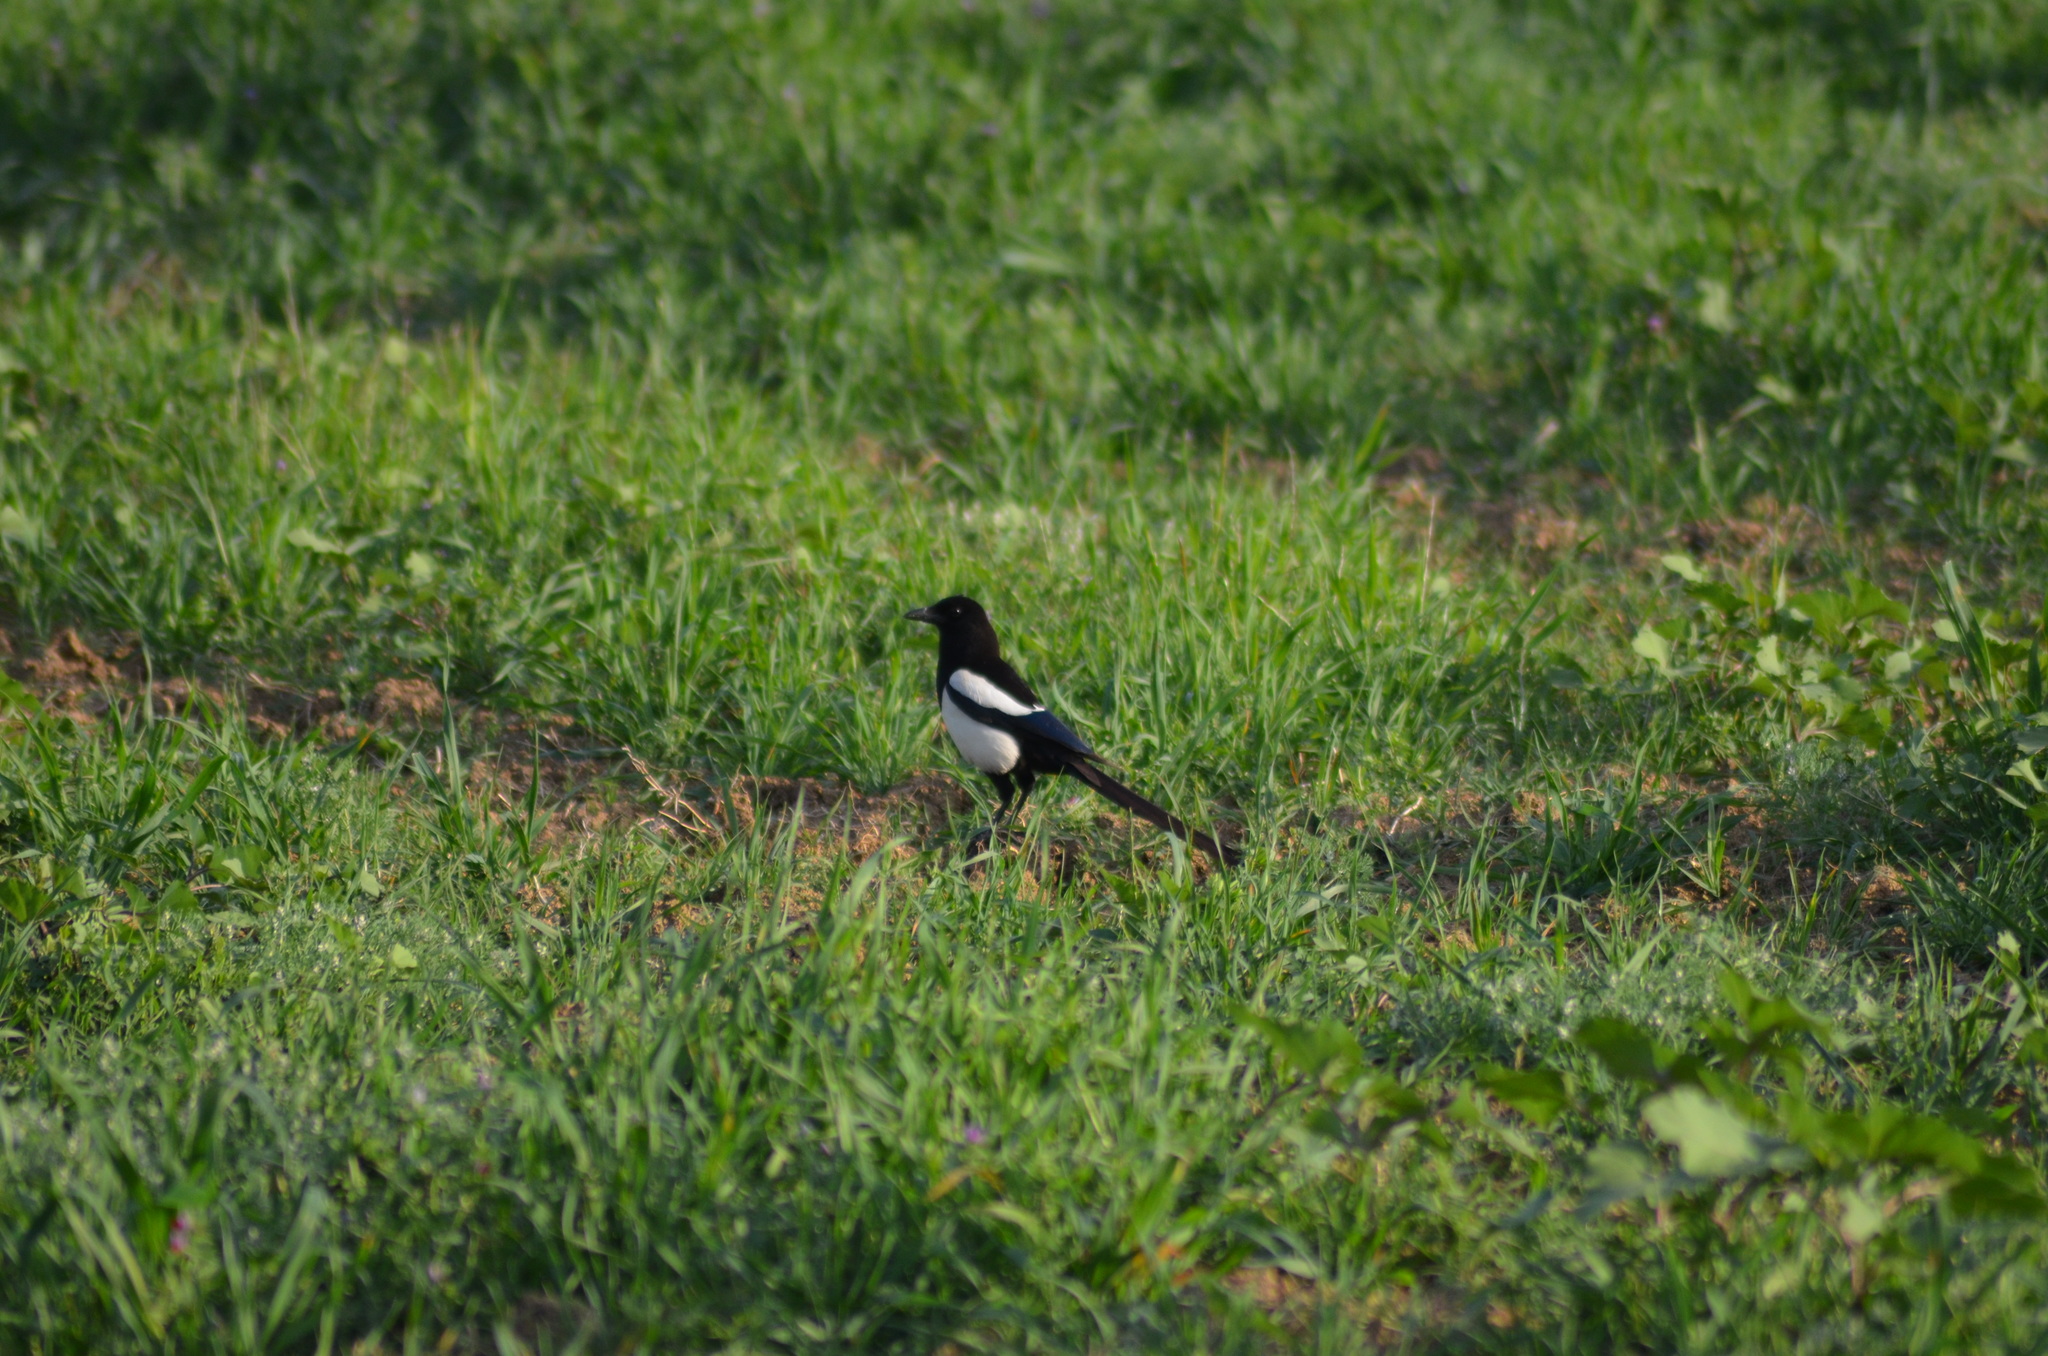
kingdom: Animalia
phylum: Chordata
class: Aves
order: Passeriformes
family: Corvidae
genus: Pica
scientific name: Pica pica
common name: Eurasian magpie
